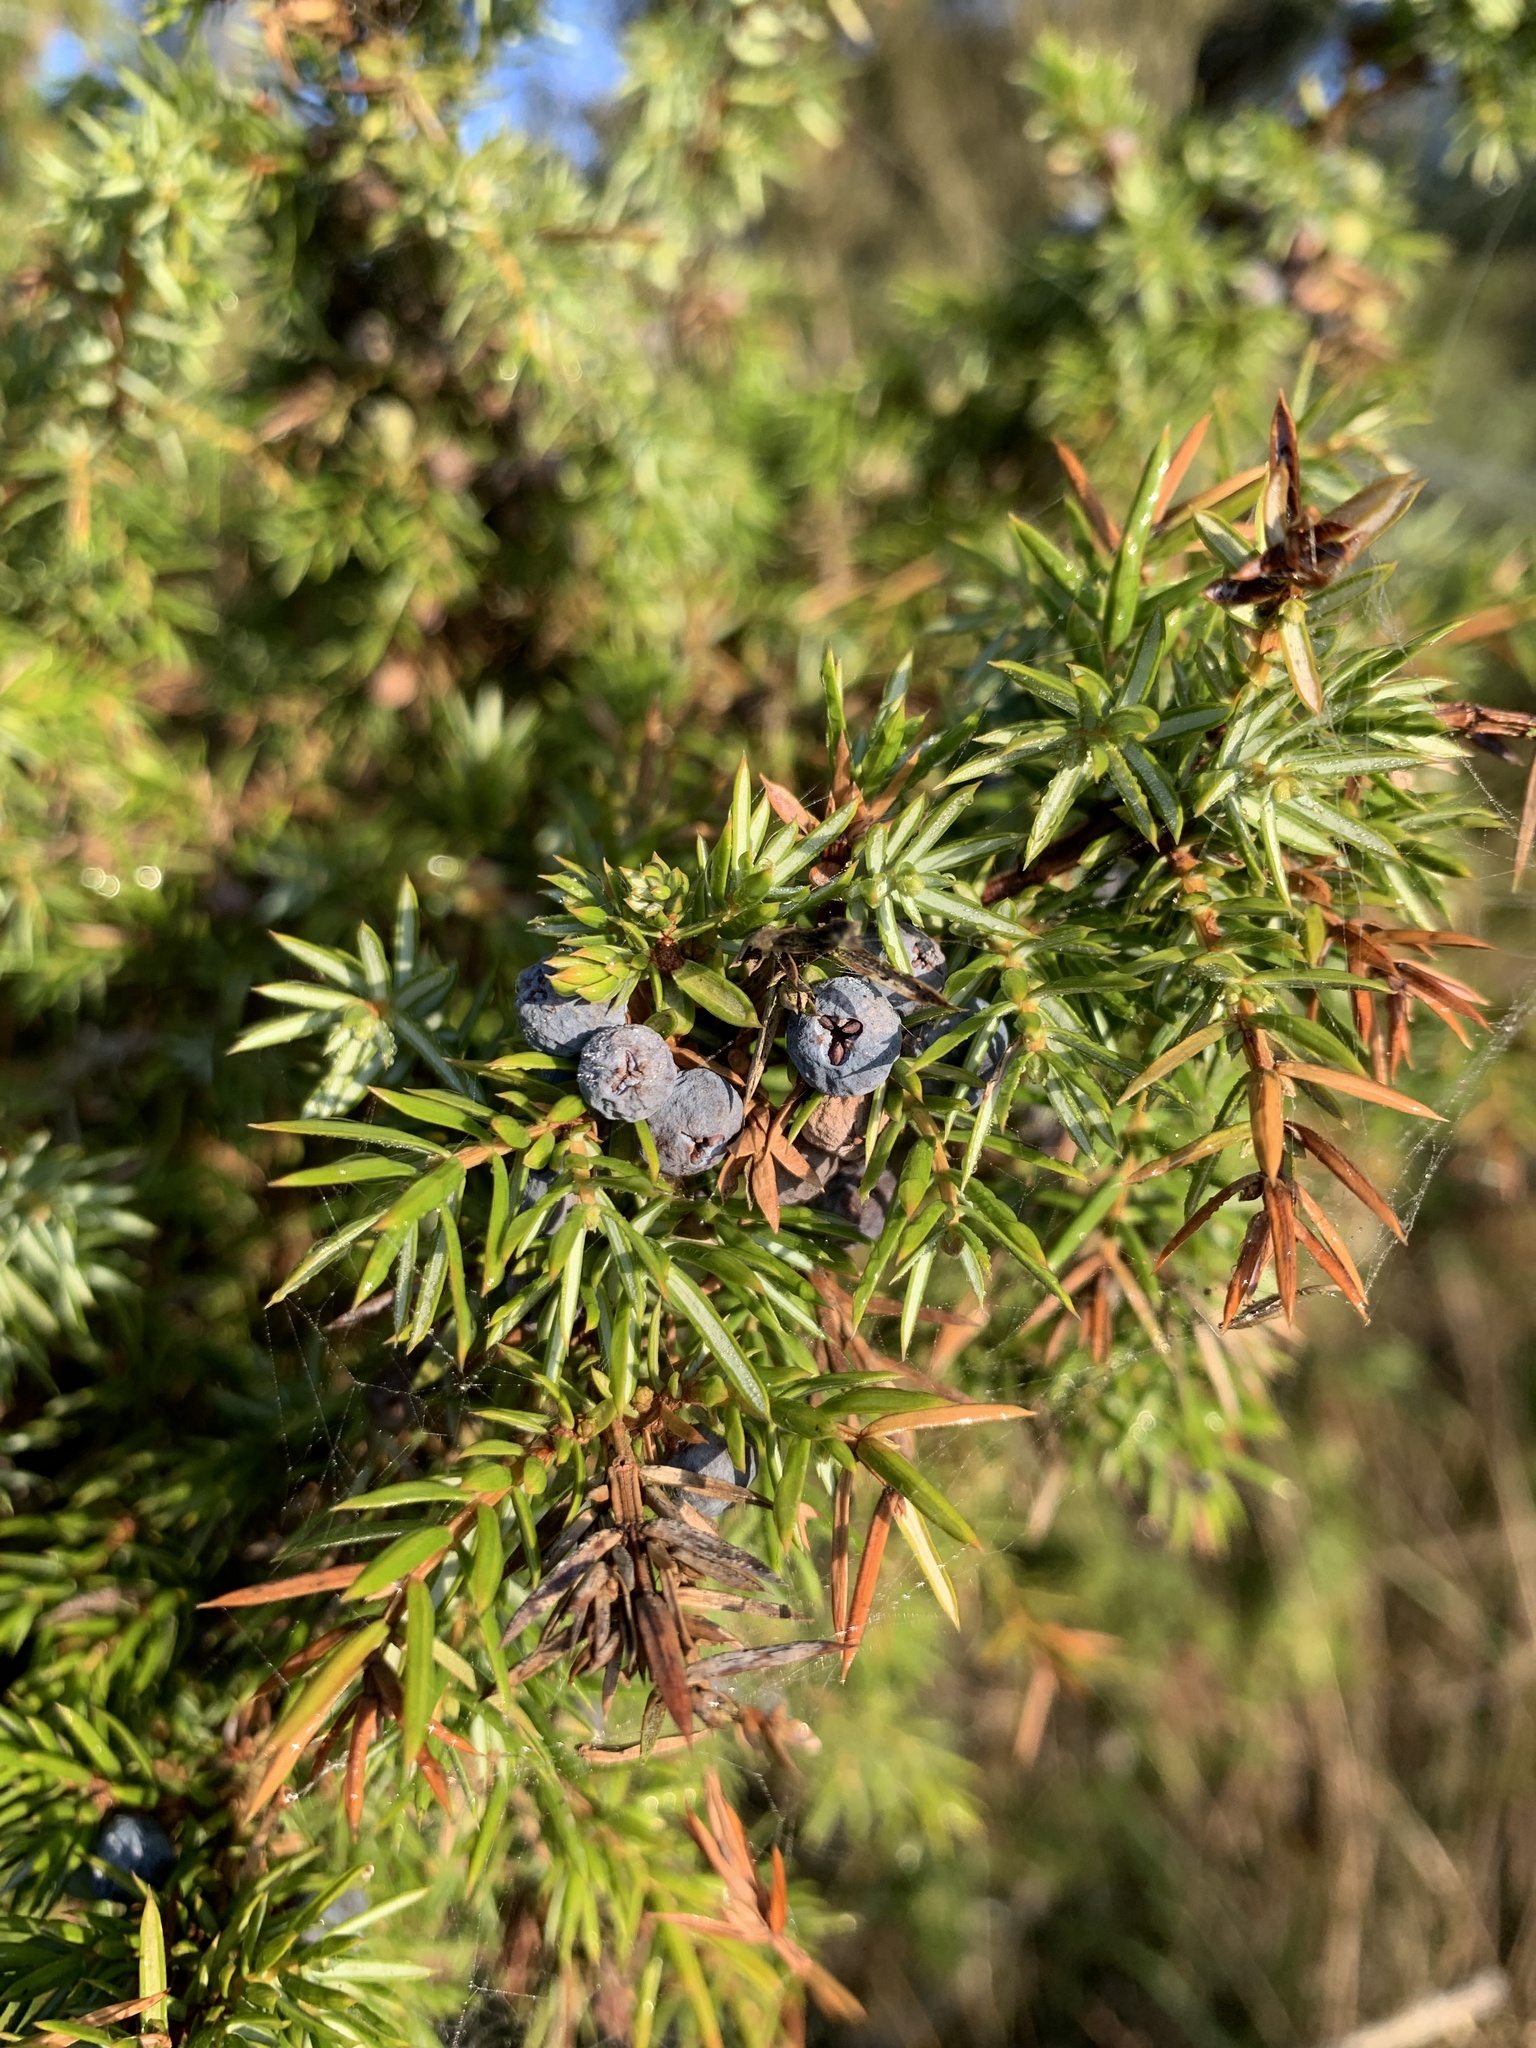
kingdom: Plantae
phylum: Tracheophyta
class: Pinopsida
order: Pinales
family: Cupressaceae
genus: Juniperus
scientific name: Juniperus communis
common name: Common juniper
